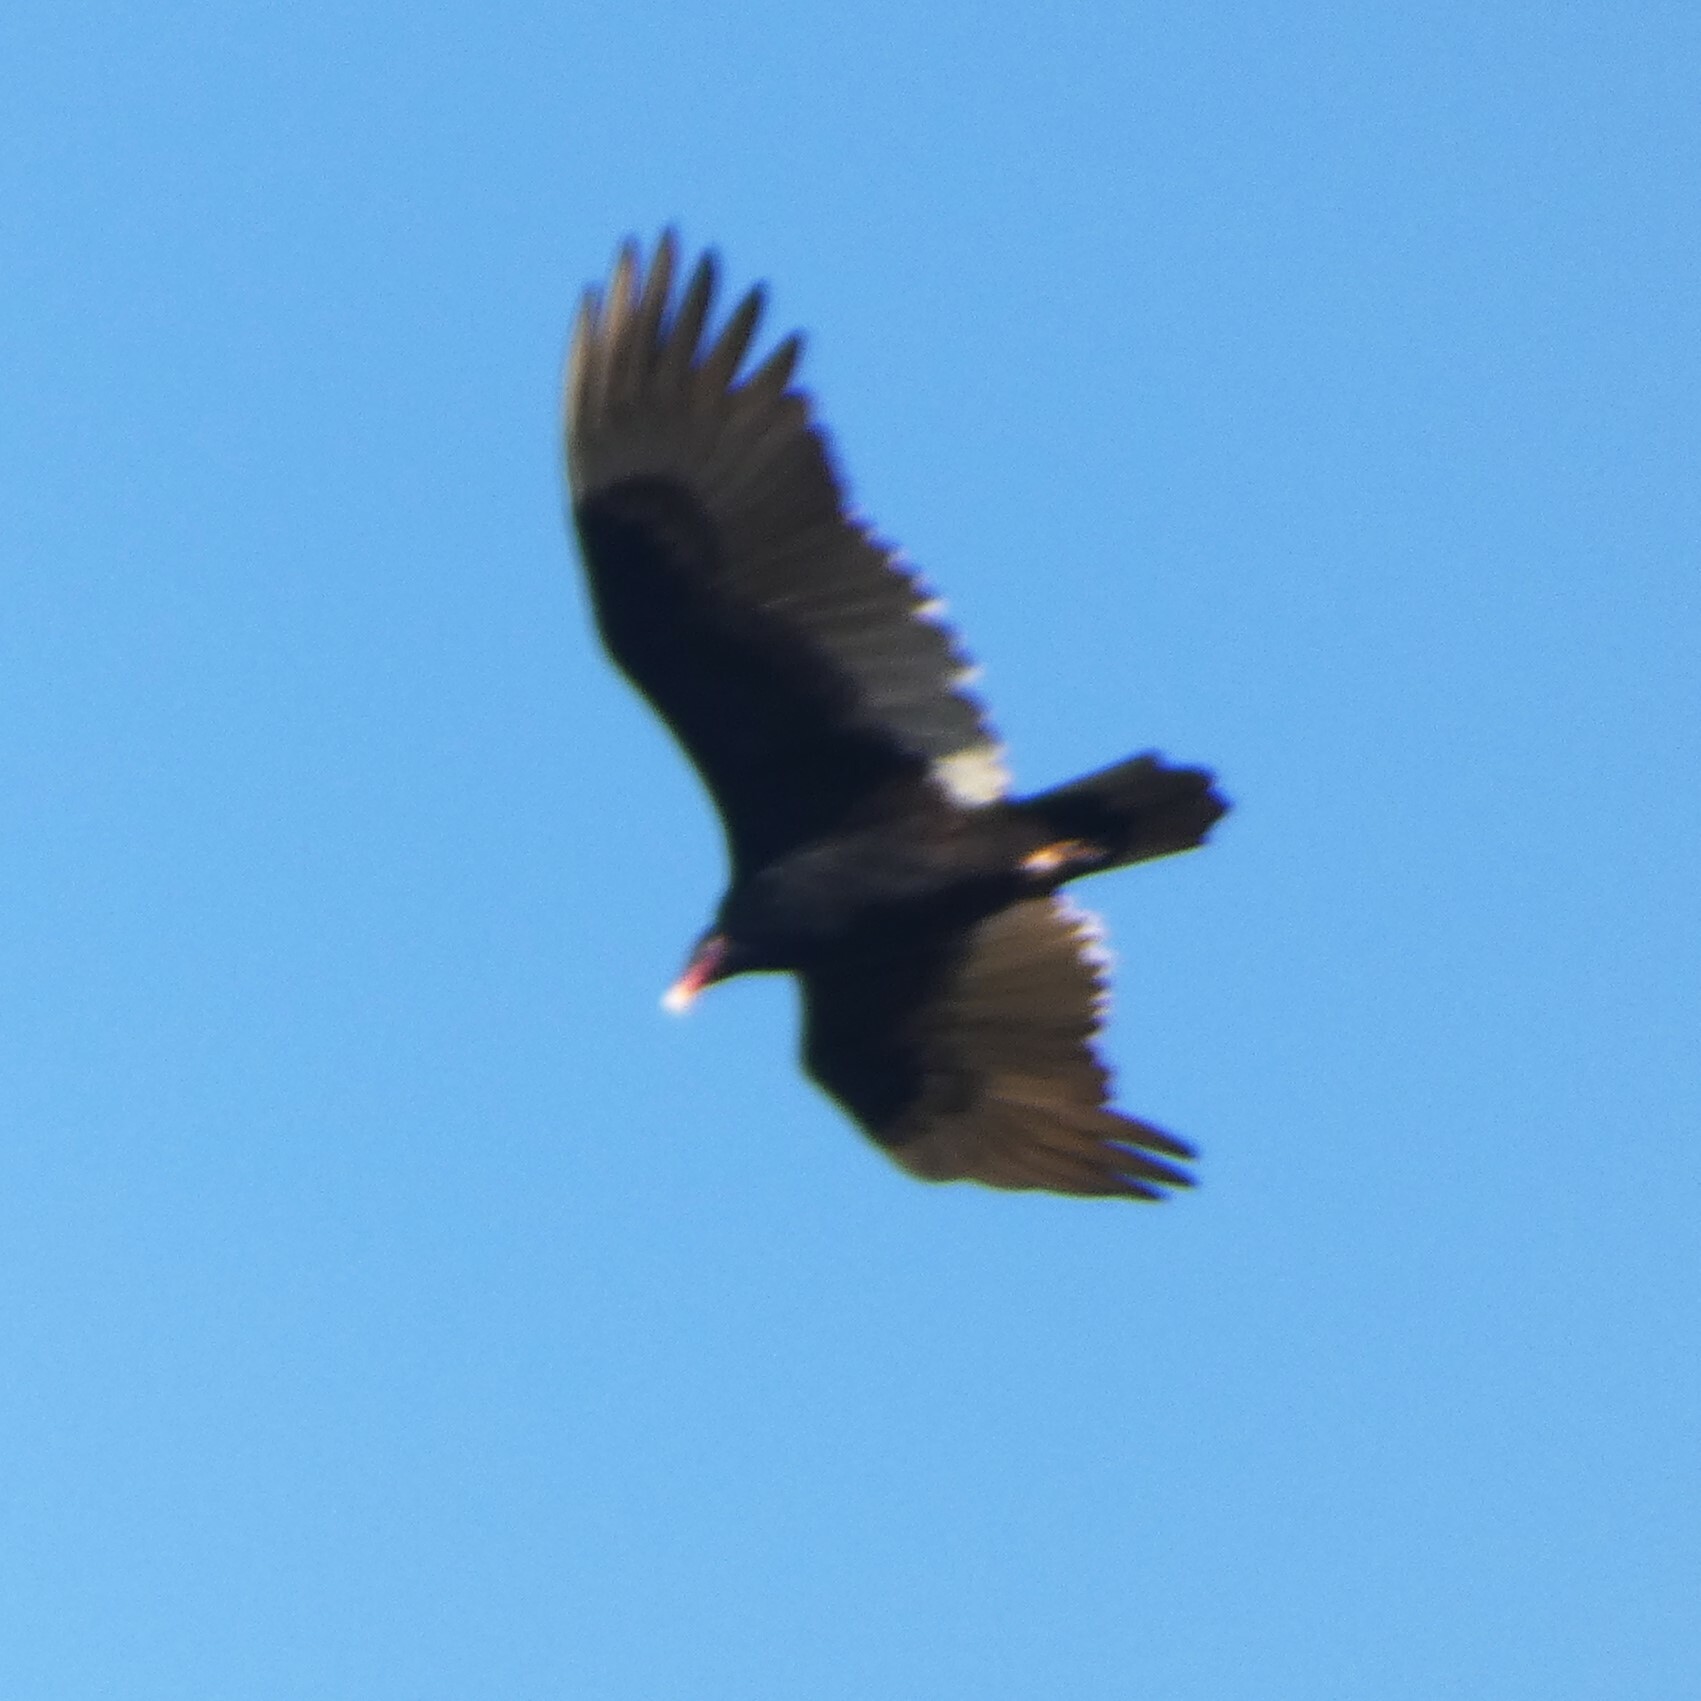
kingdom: Animalia
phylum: Chordata
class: Aves
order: Accipitriformes
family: Cathartidae
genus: Cathartes
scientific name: Cathartes aura
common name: Turkey vulture
